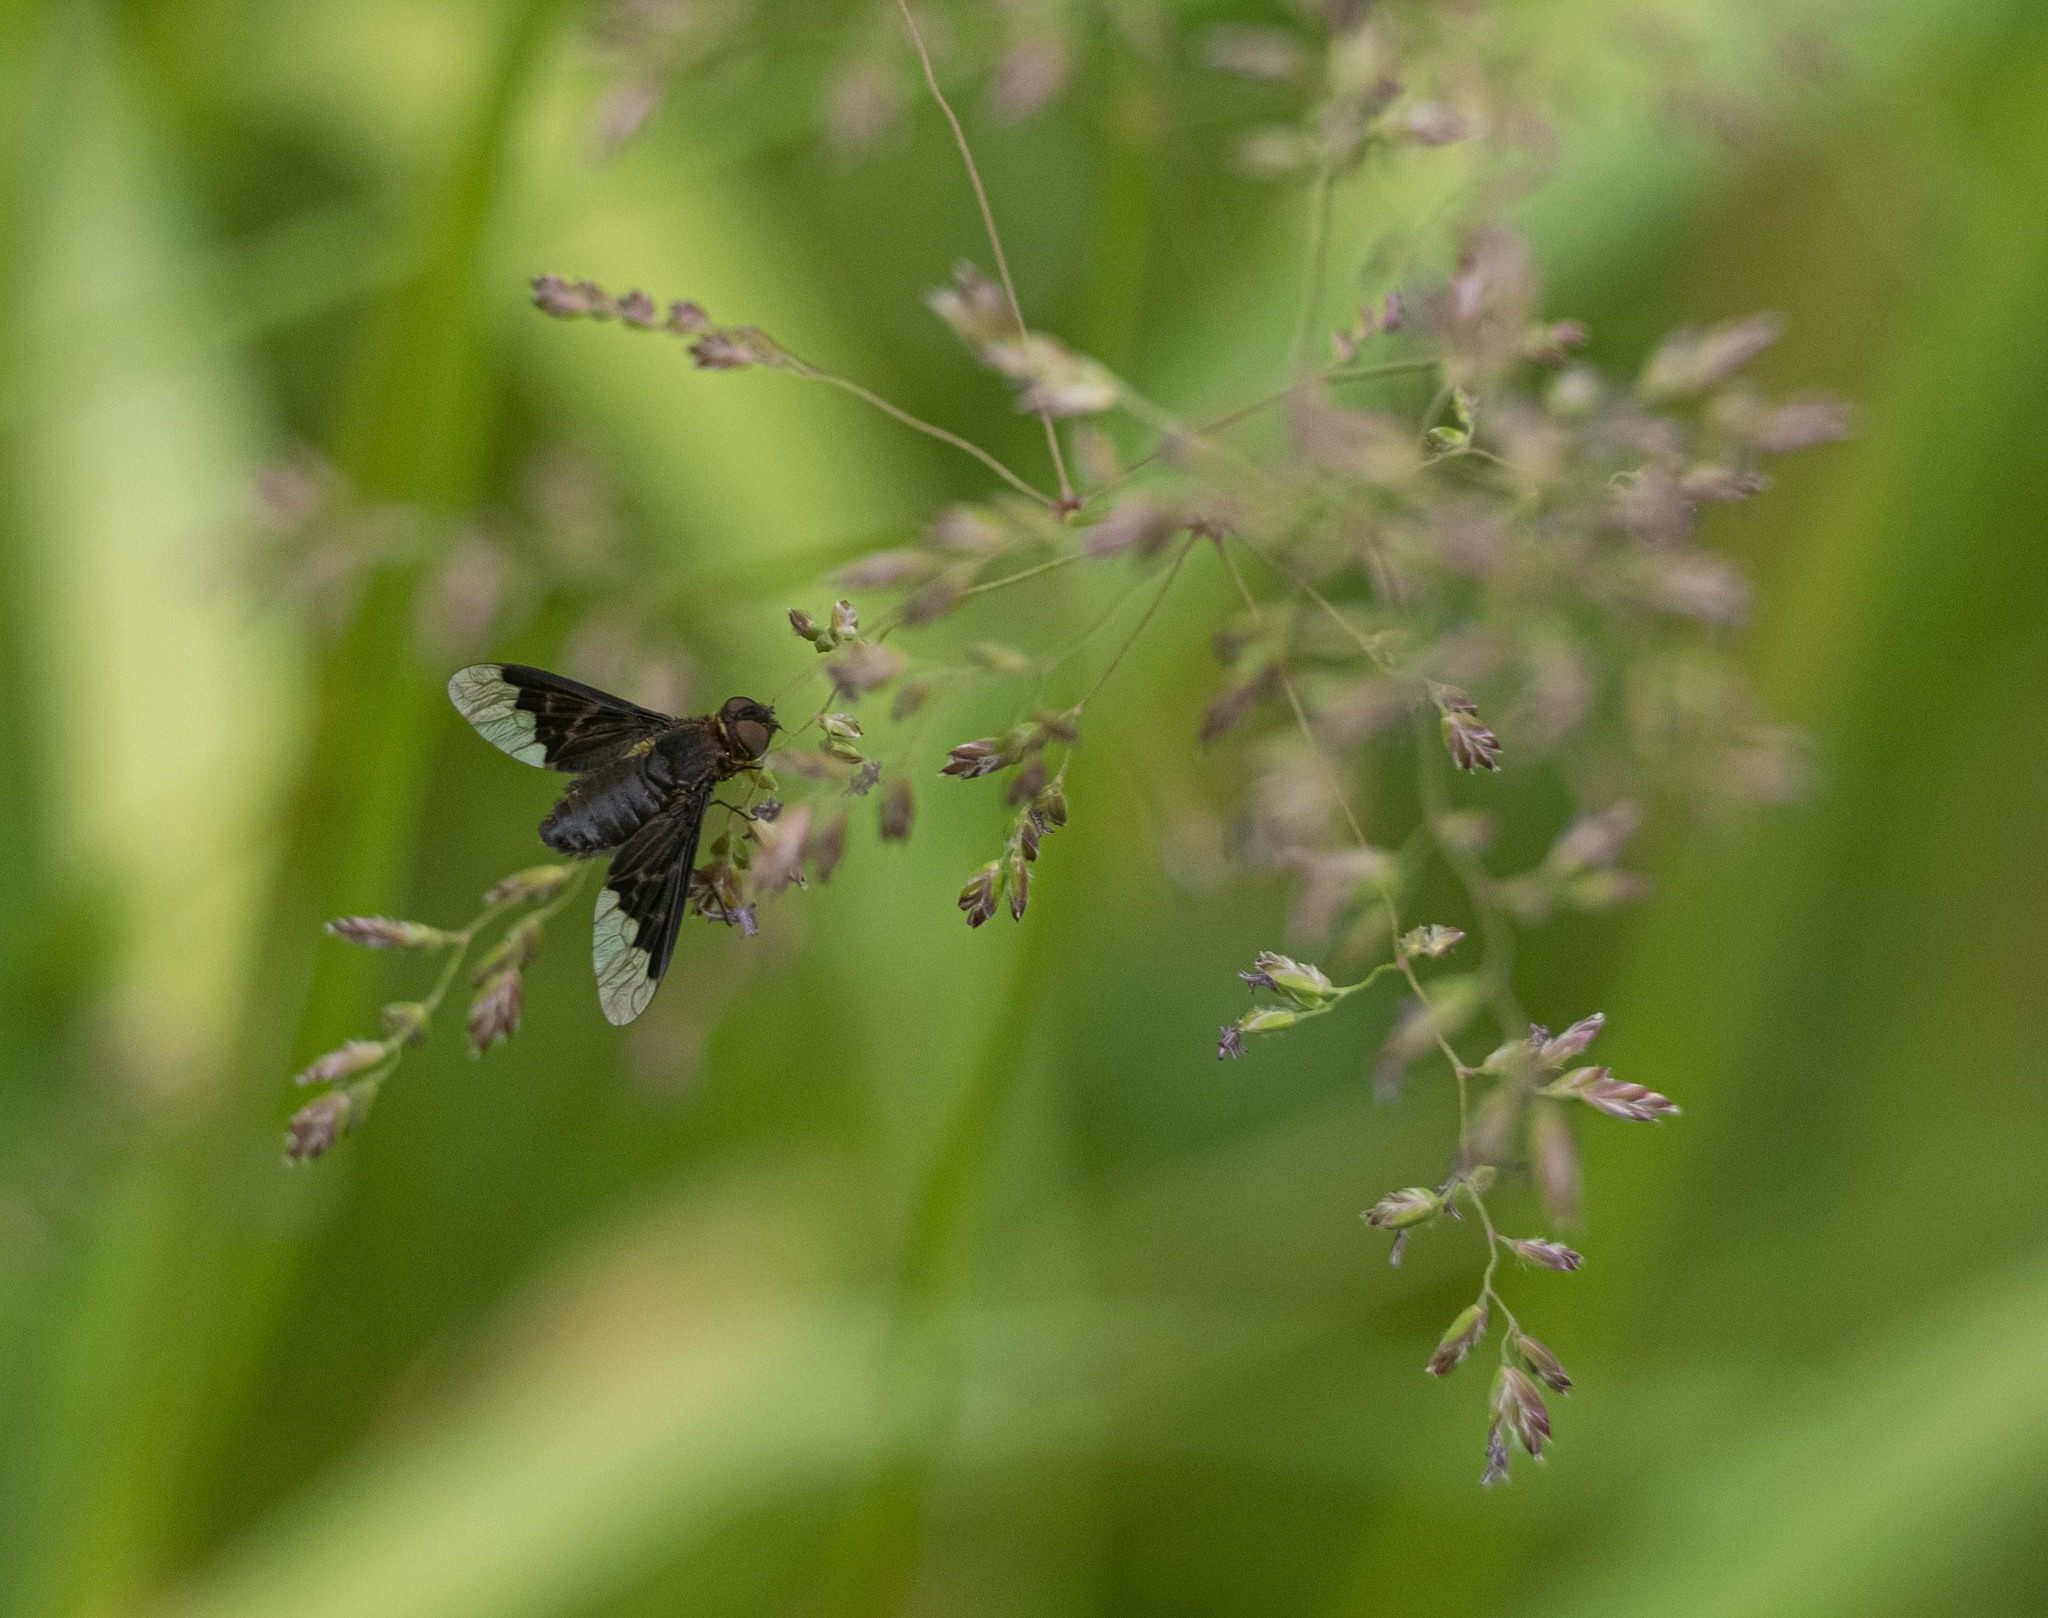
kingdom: Animalia
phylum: Arthropoda
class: Insecta
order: Diptera
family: Bombyliidae
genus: Hemipenthes
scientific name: Hemipenthes morio
